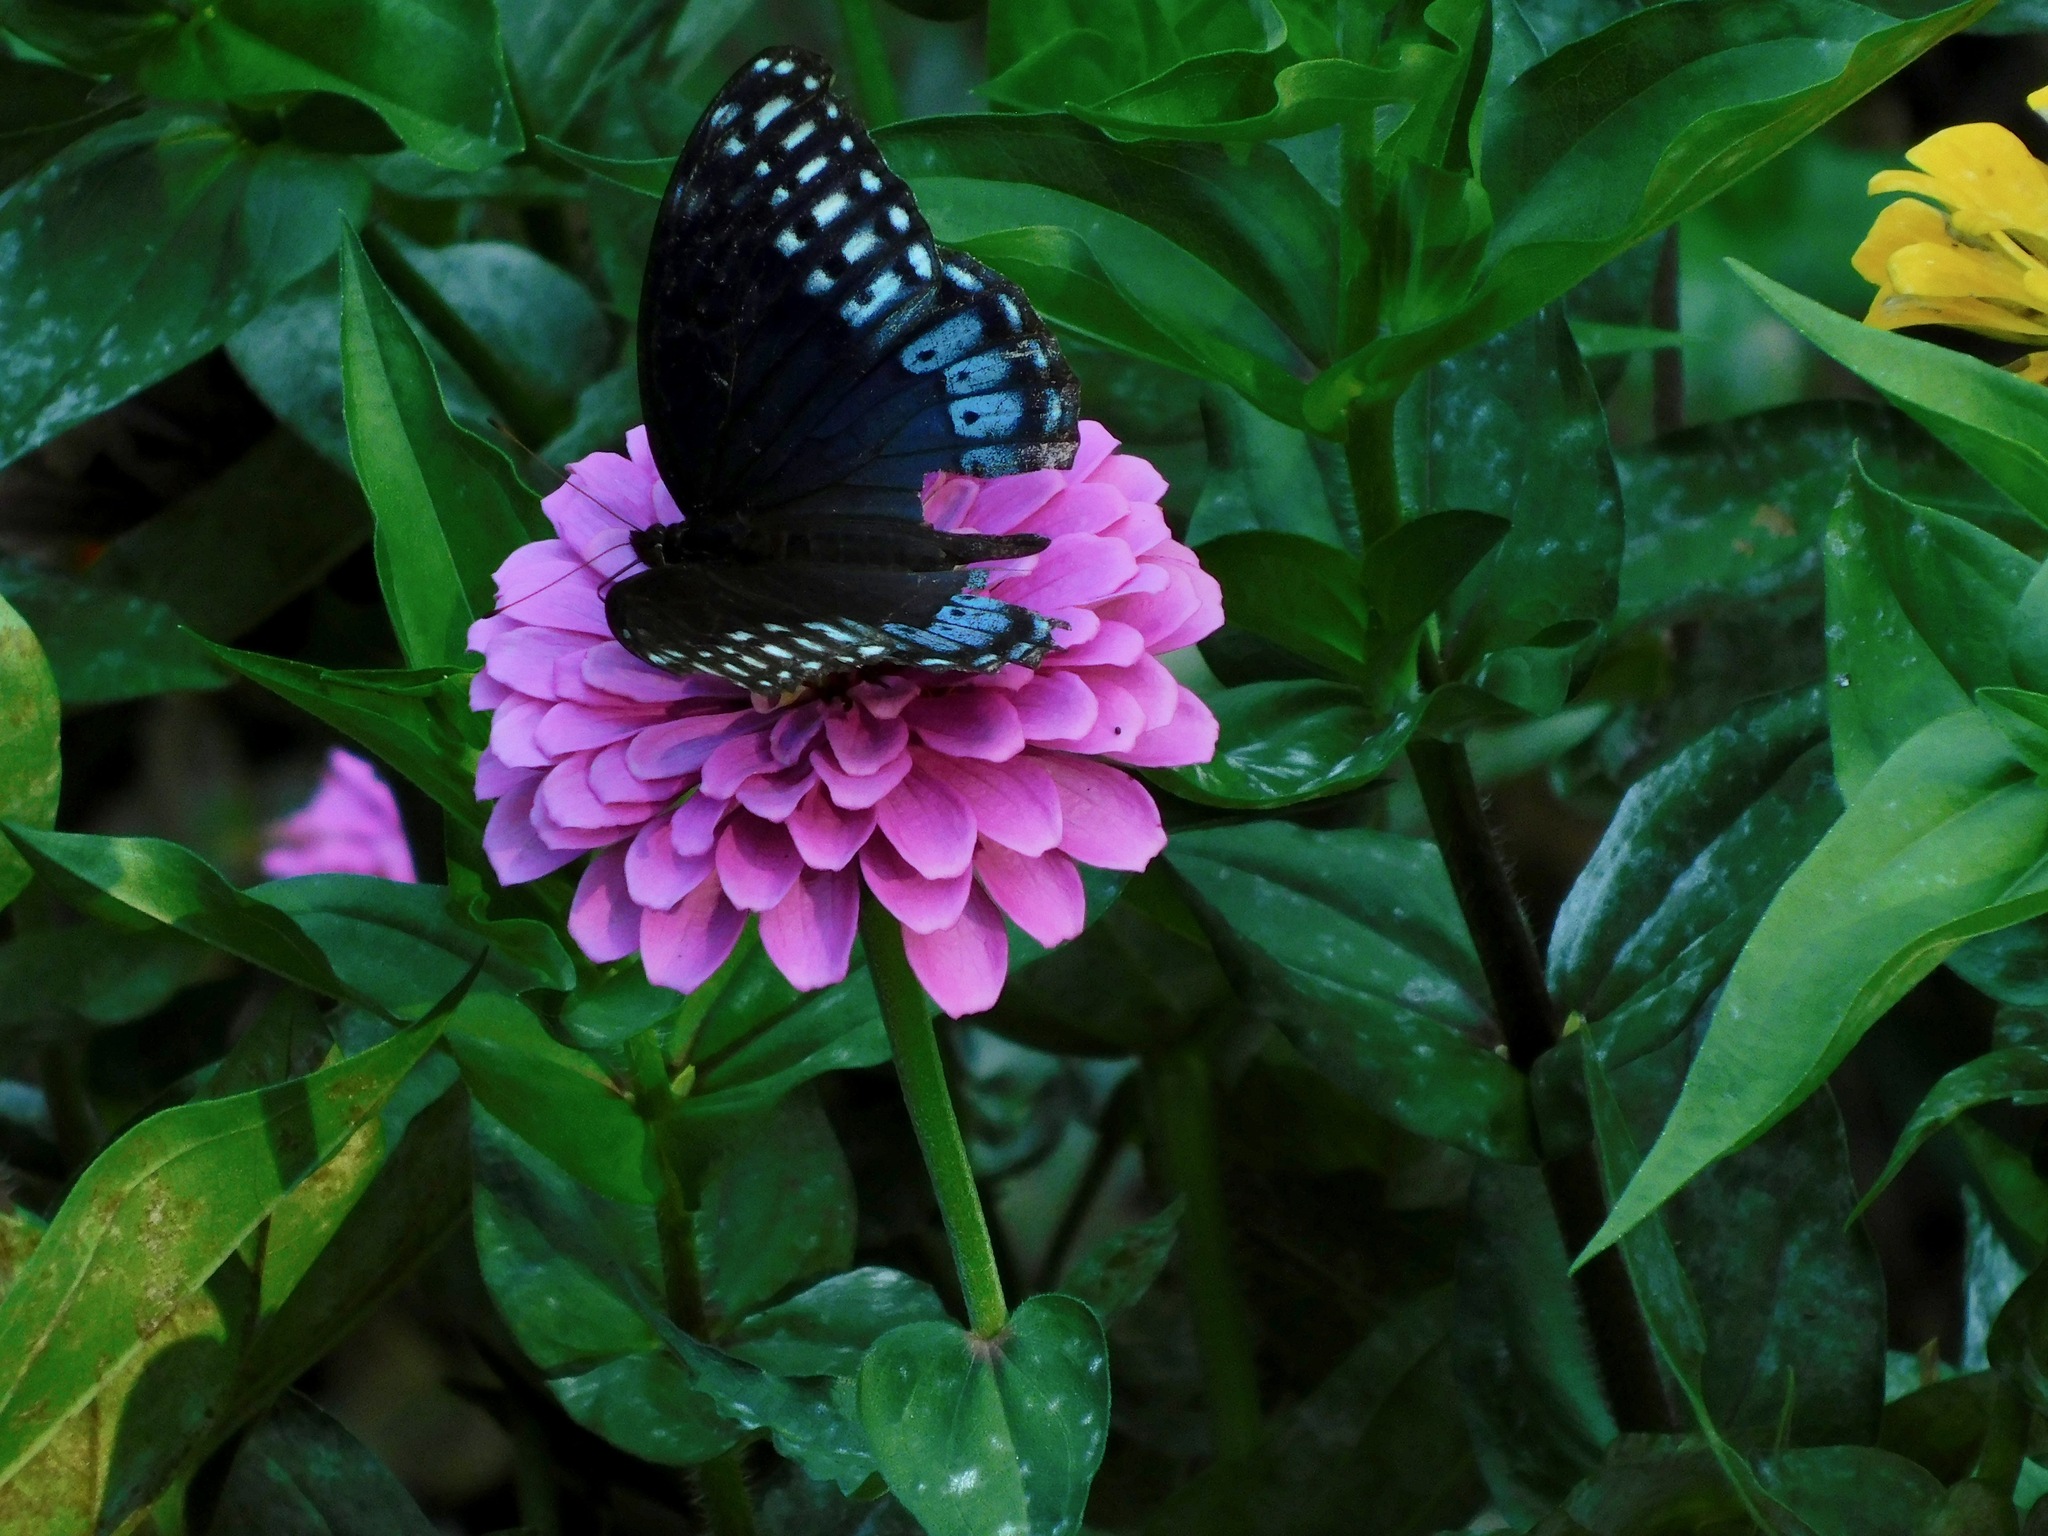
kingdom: Animalia
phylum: Arthropoda
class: Insecta
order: Lepidoptera
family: Nymphalidae
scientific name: Nymphalidae
